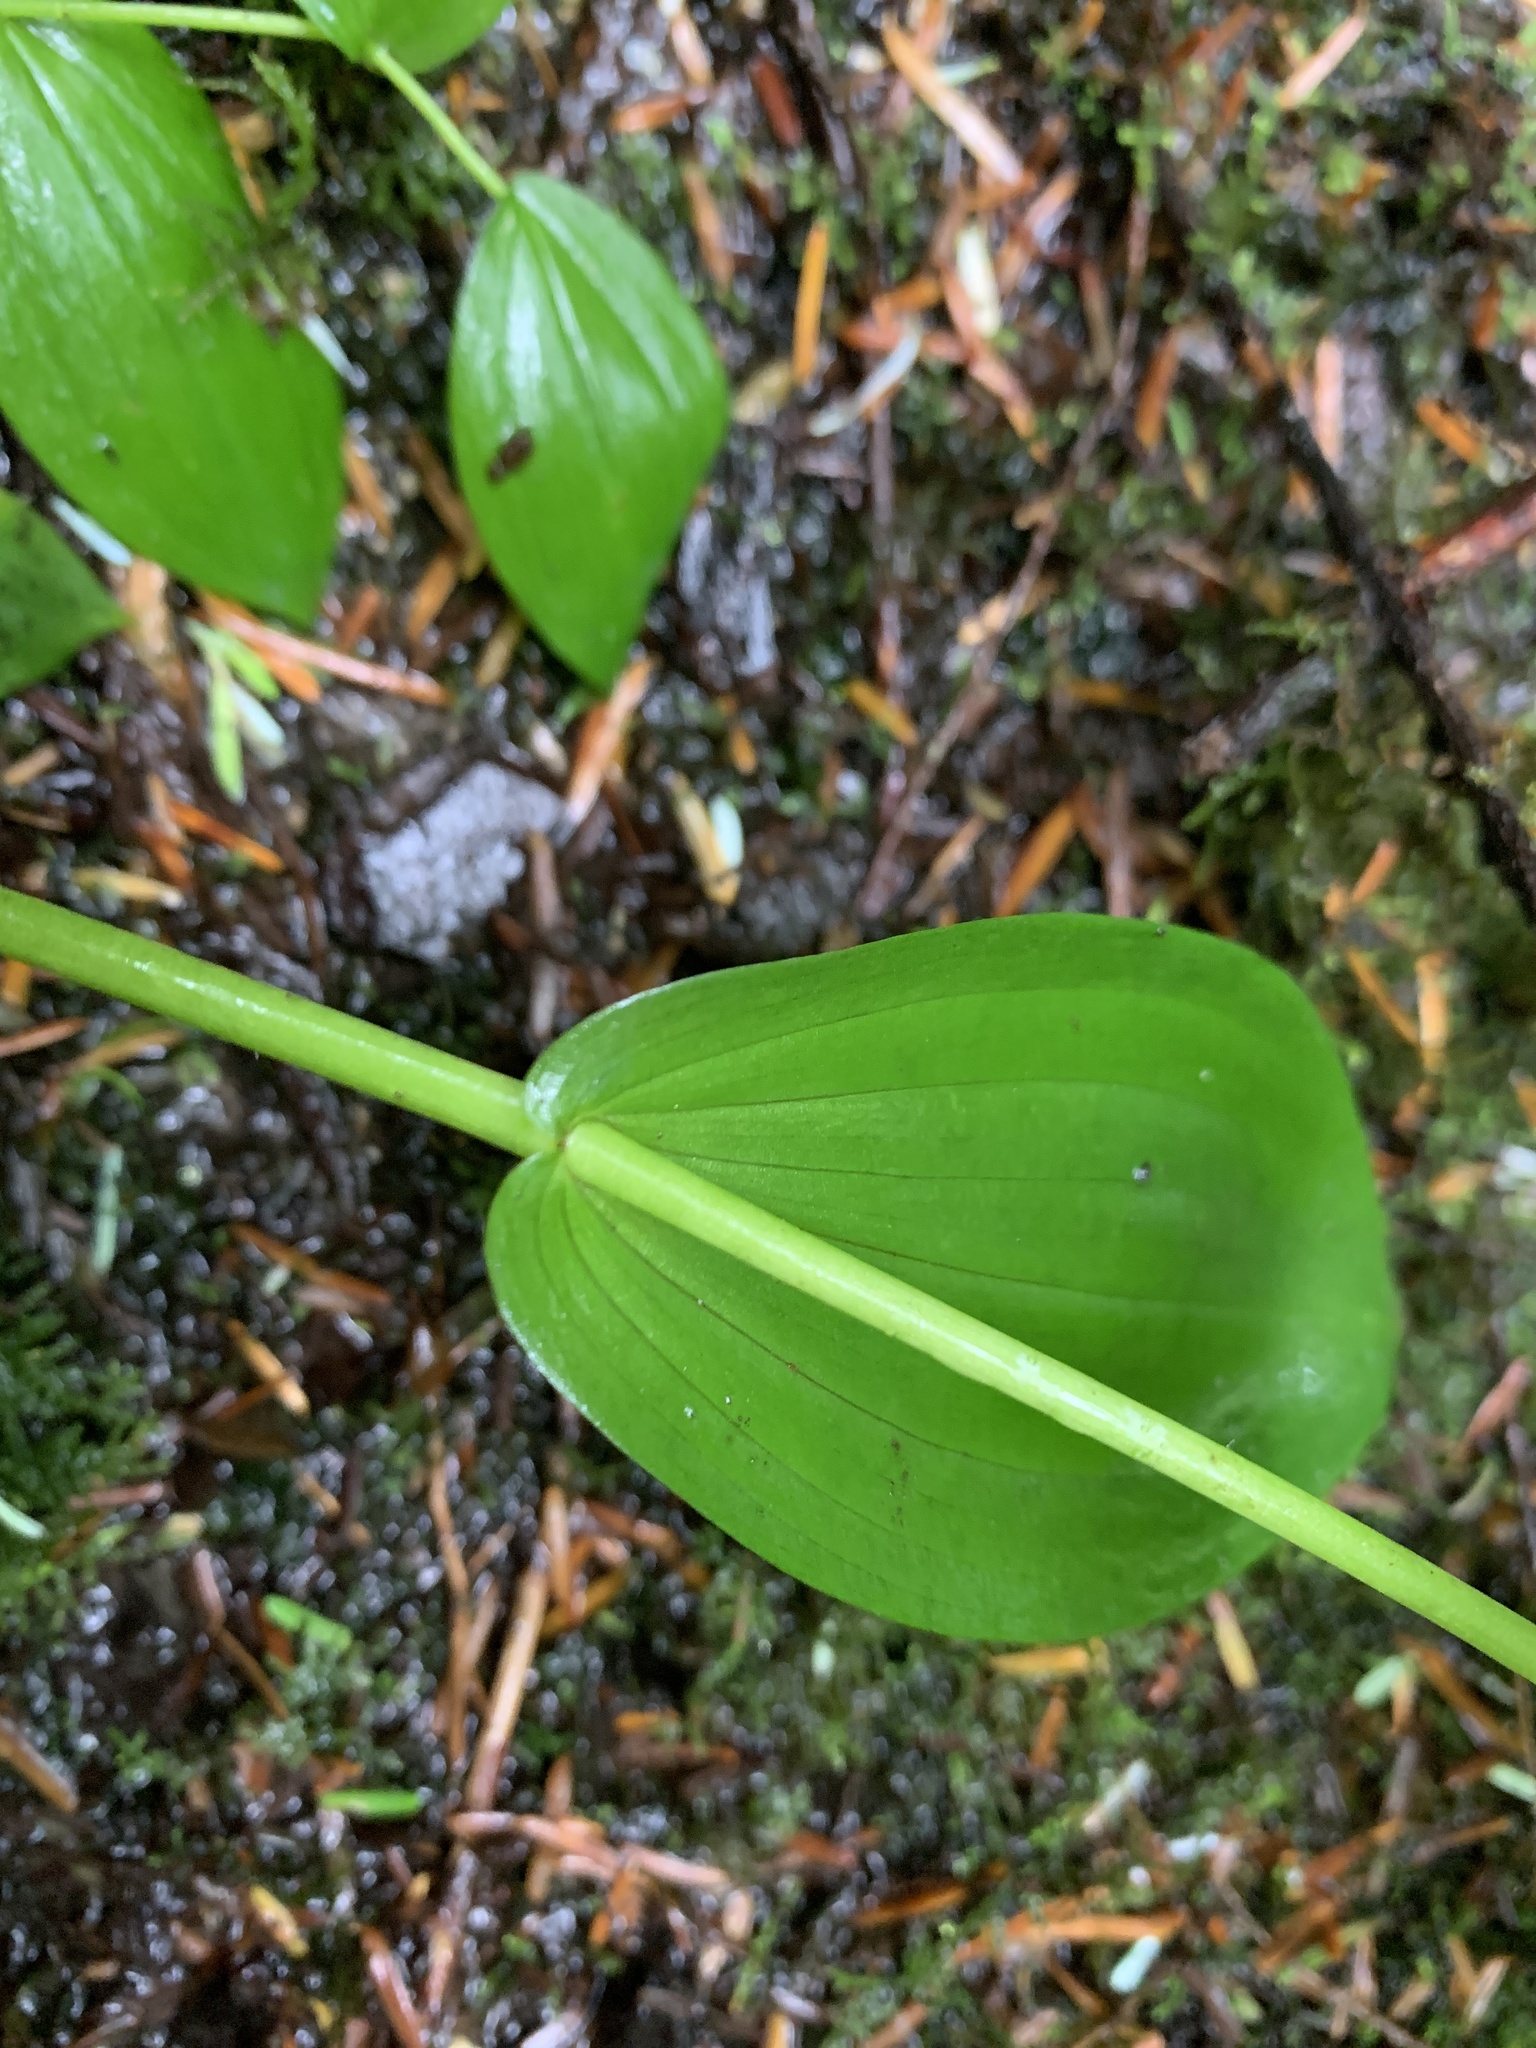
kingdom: Plantae
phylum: Tracheophyta
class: Liliopsida
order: Liliales
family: Liliaceae
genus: Streptopus
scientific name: Streptopus amplexifolius
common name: Clasp twisted stalk
